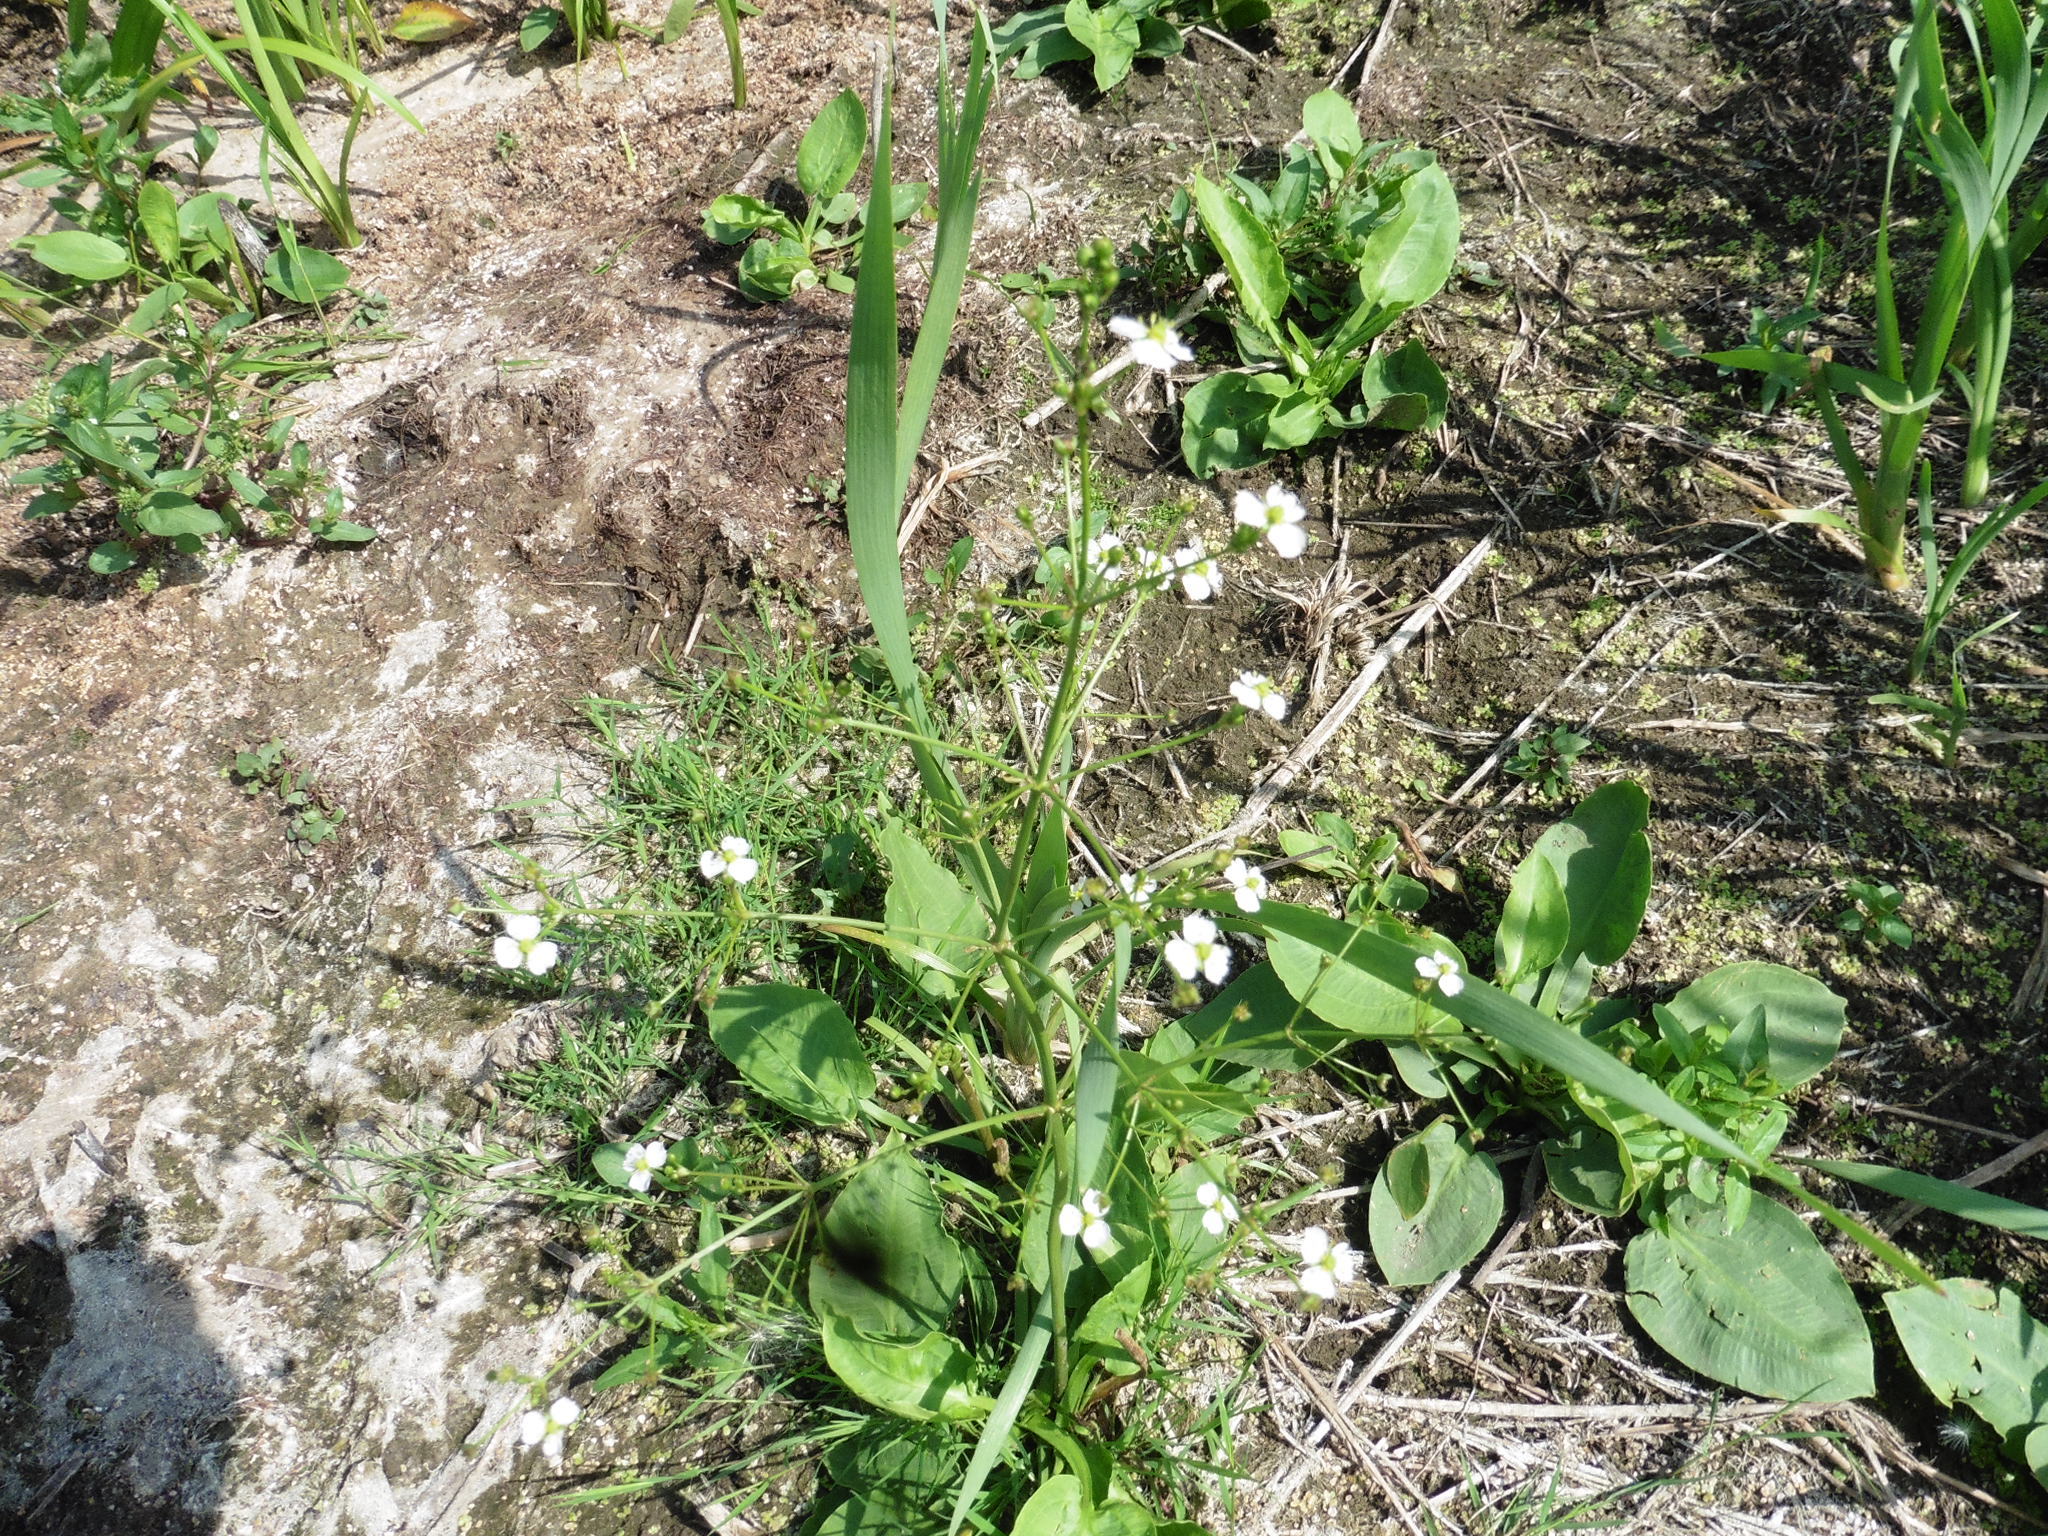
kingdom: Plantae
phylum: Tracheophyta
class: Liliopsida
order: Alismatales
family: Alismataceae
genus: Alisma
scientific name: Alisma plantago-aquatica
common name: Water-plantain
